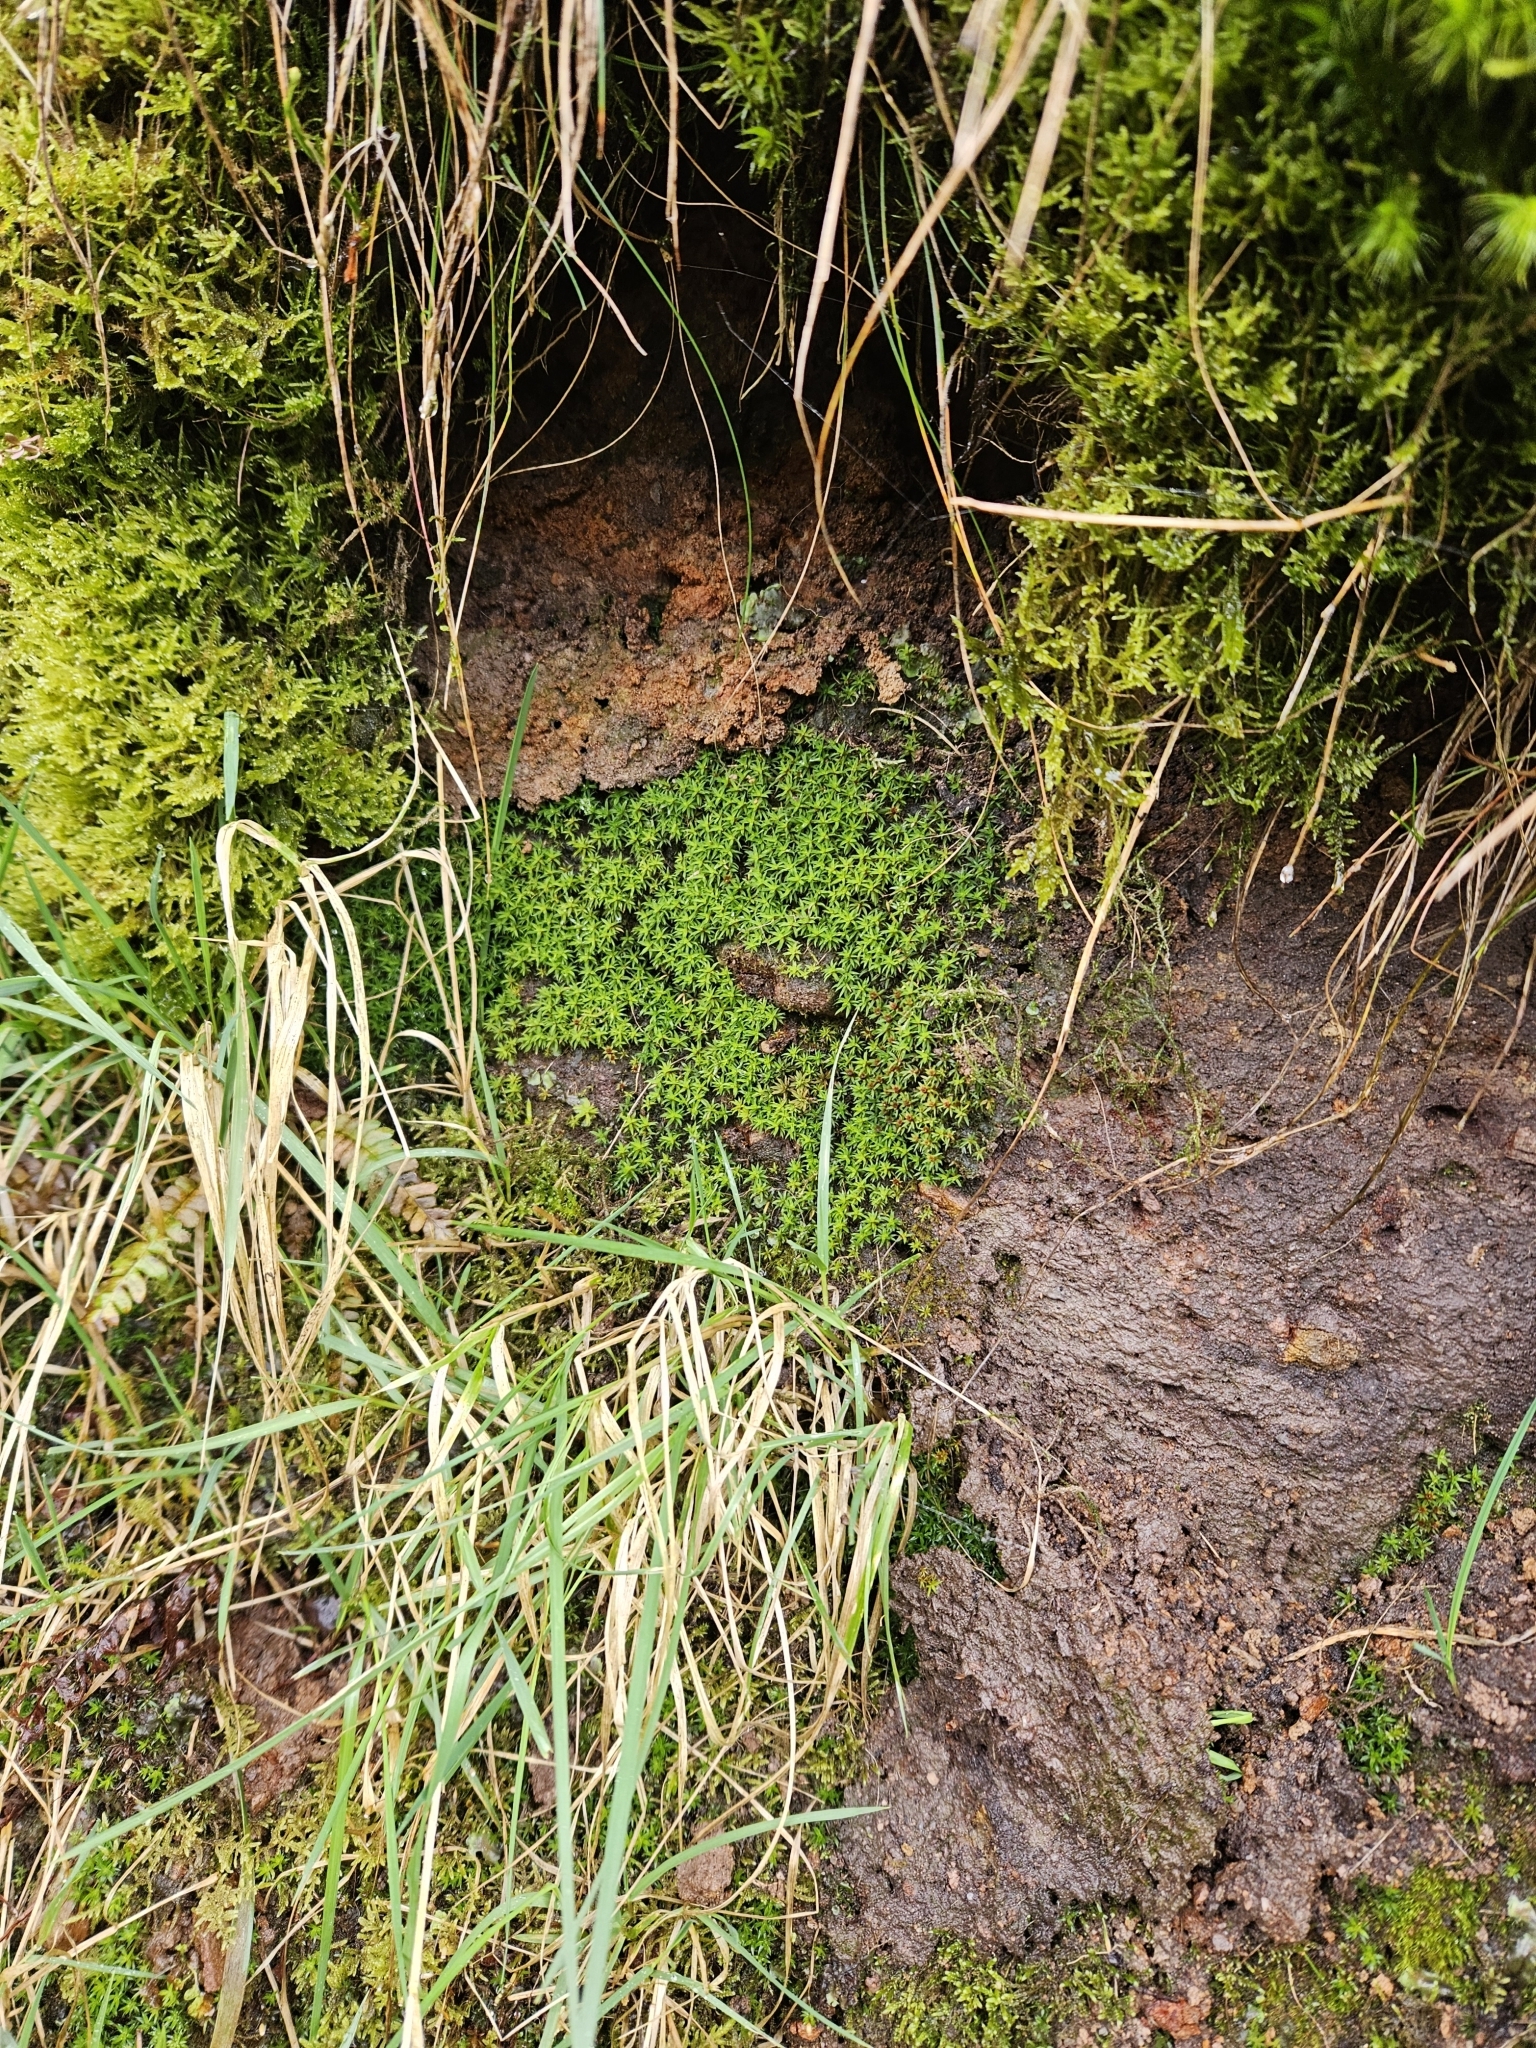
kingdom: Plantae
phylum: Bryophyta
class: Polytrichopsida
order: Polytrichales
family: Polytrichaceae
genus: Pogonatum
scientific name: Pogonatum aloides
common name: Aloe haircap
